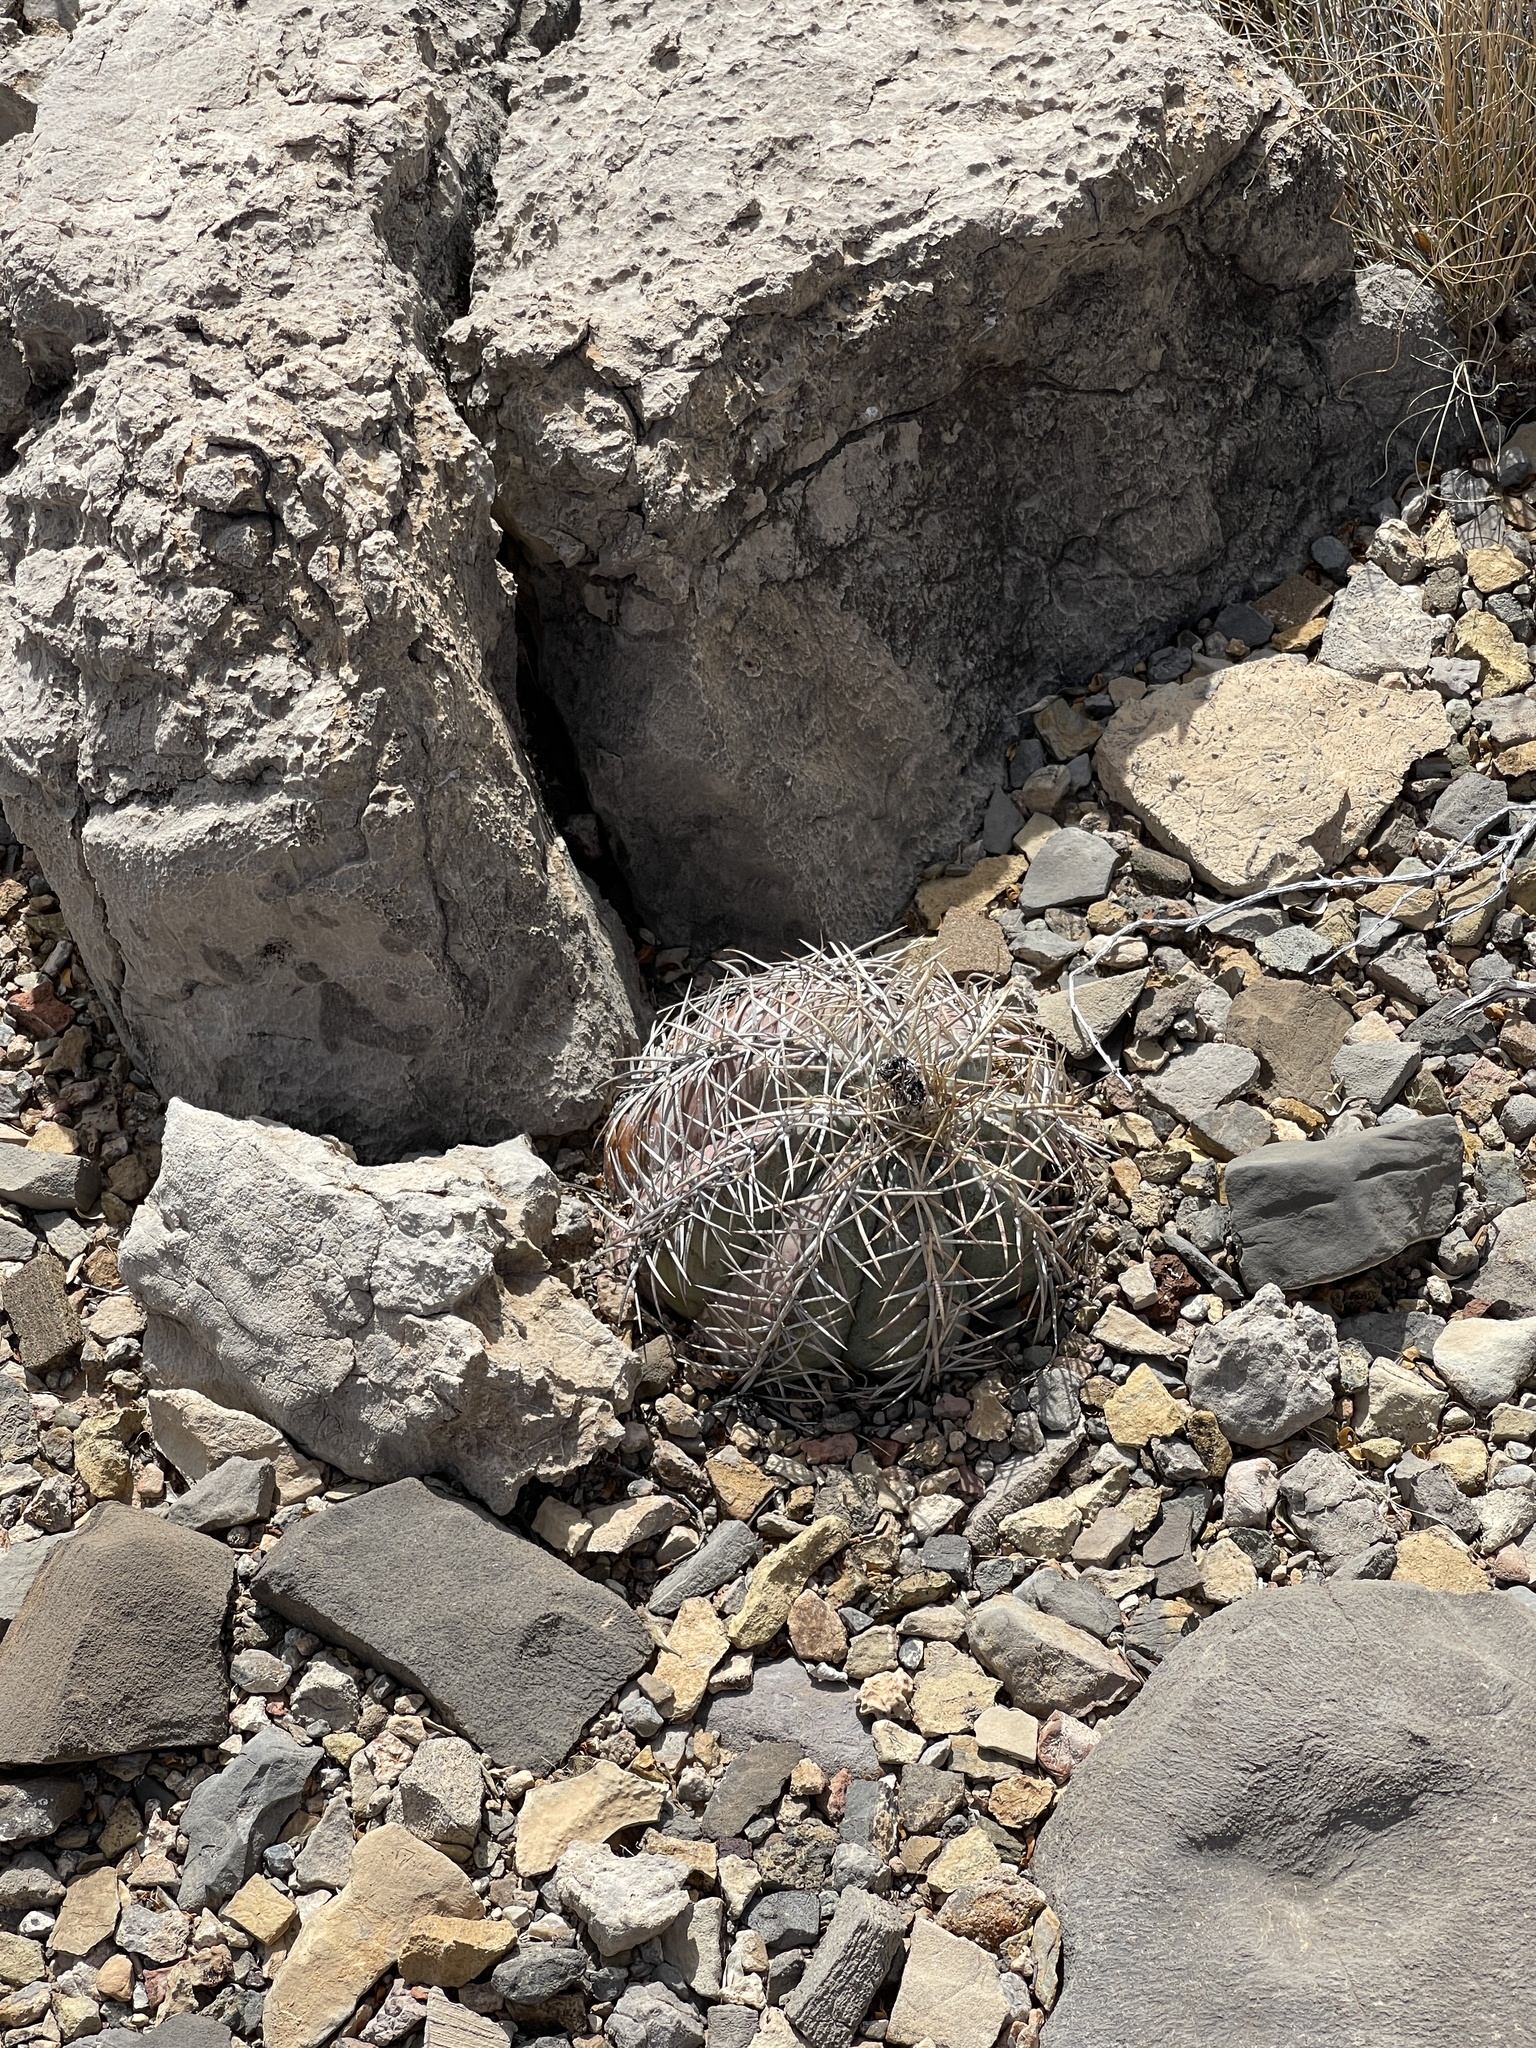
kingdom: Plantae
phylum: Tracheophyta
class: Magnoliopsida
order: Caryophyllales
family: Cactaceae
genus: Echinocactus
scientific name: Echinocactus horizonthalonius
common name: Devilshead
